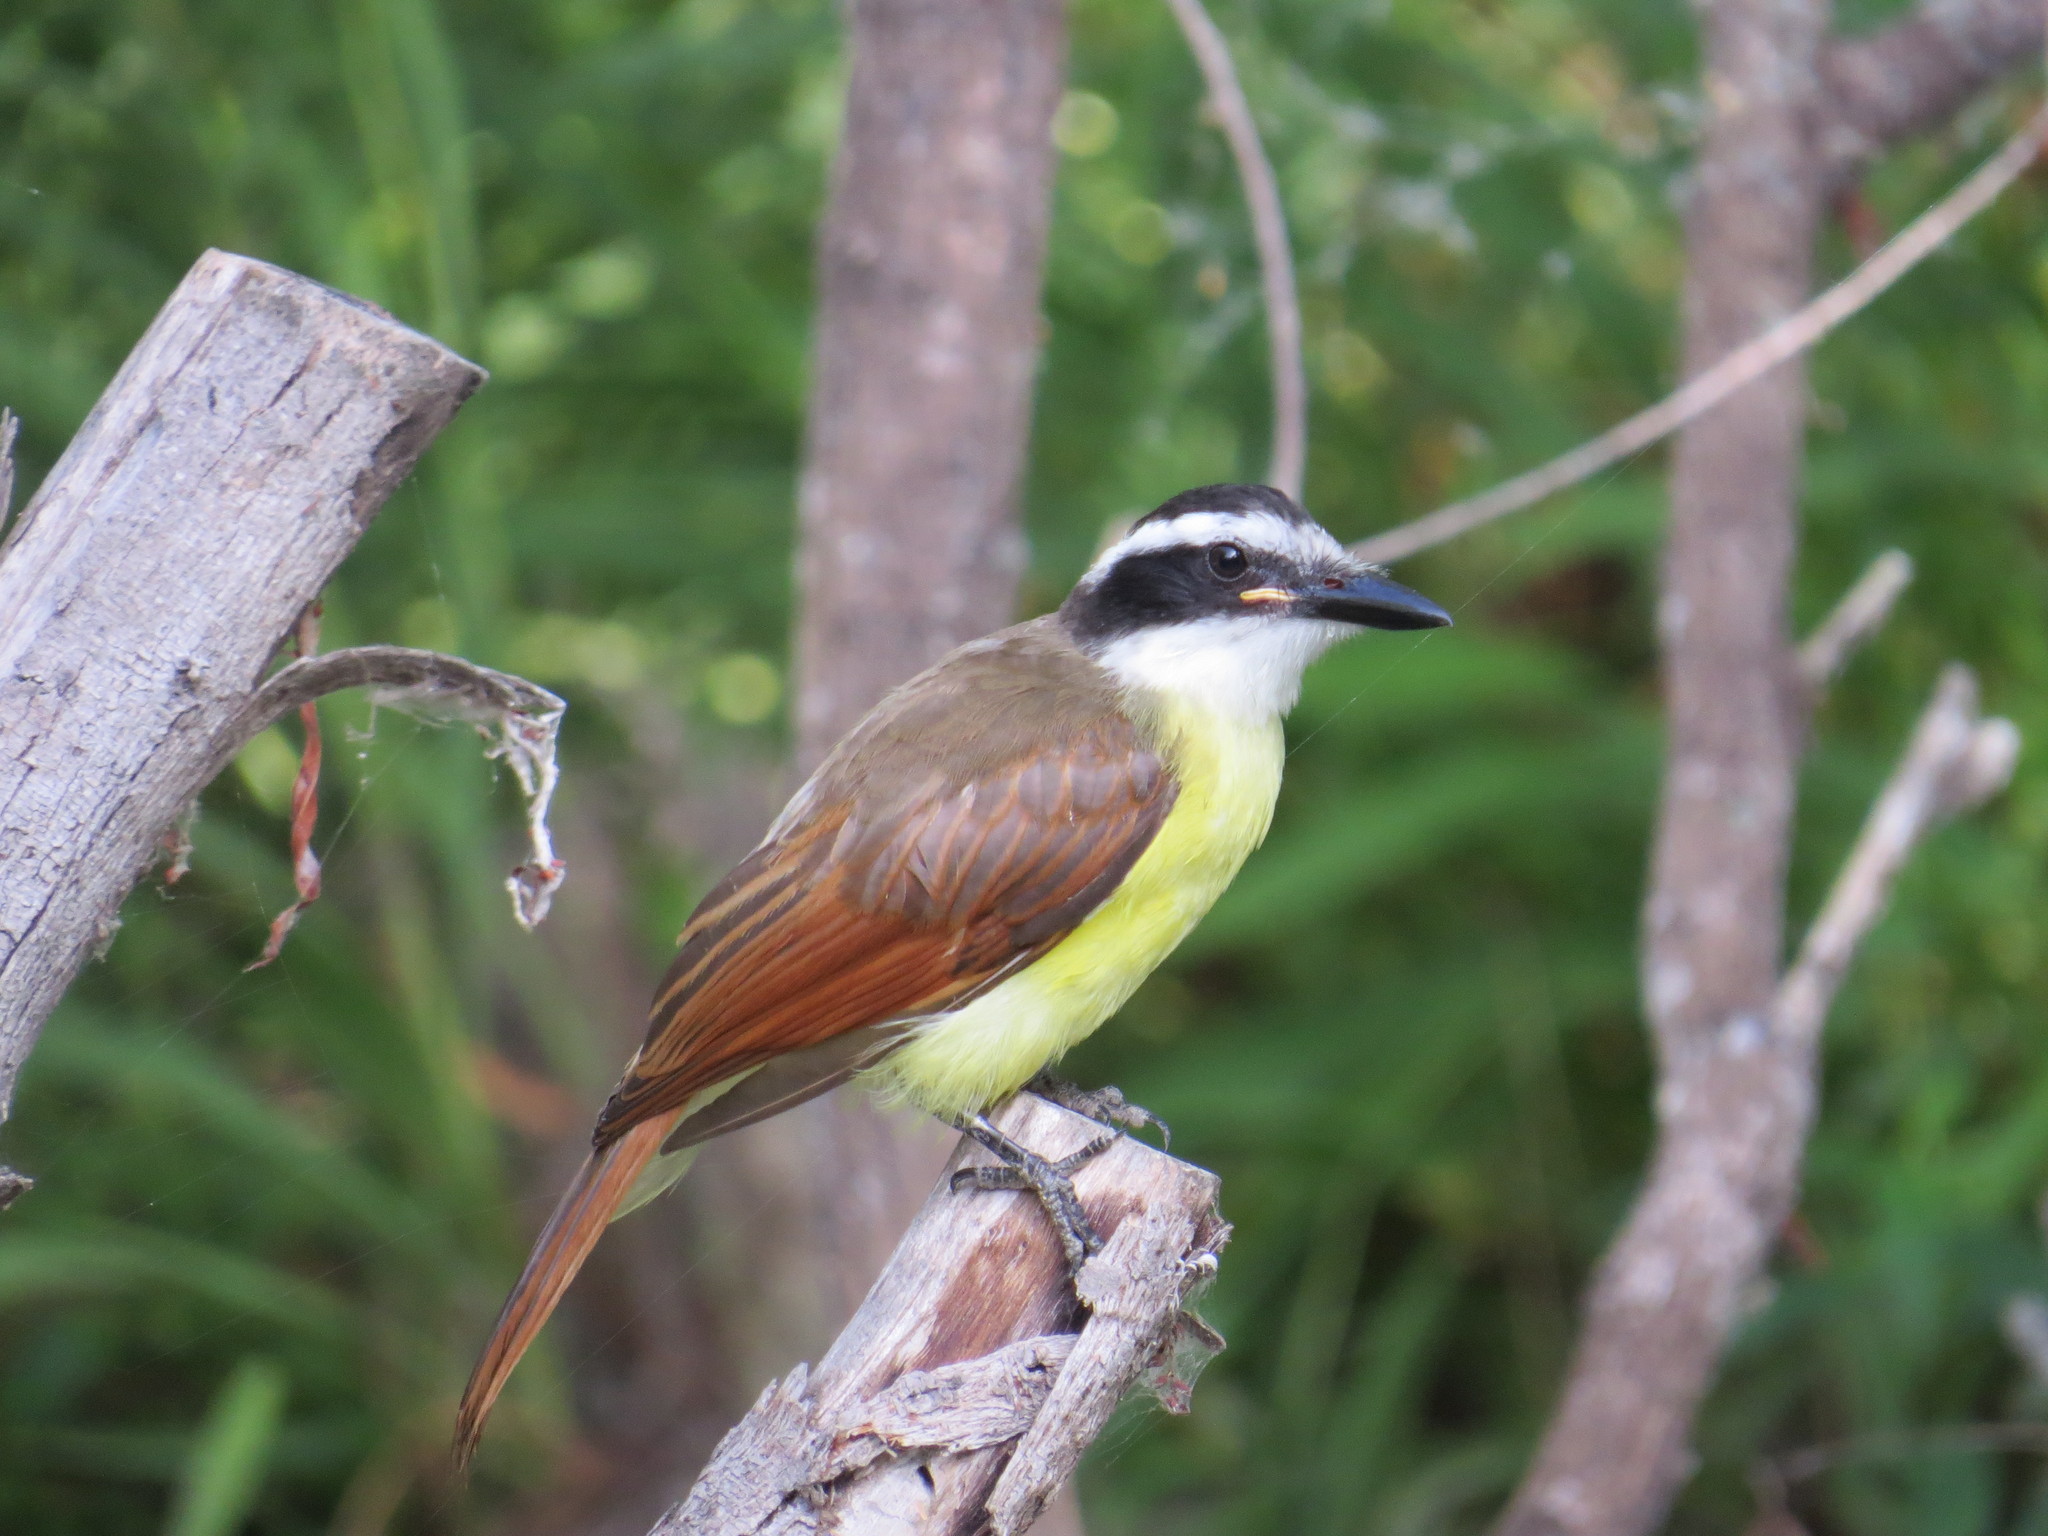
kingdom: Animalia
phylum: Chordata
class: Aves
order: Passeriformes
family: Tyrannidae
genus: Pitangus
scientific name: Pitangus sulphuratus
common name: Great kiskadee
